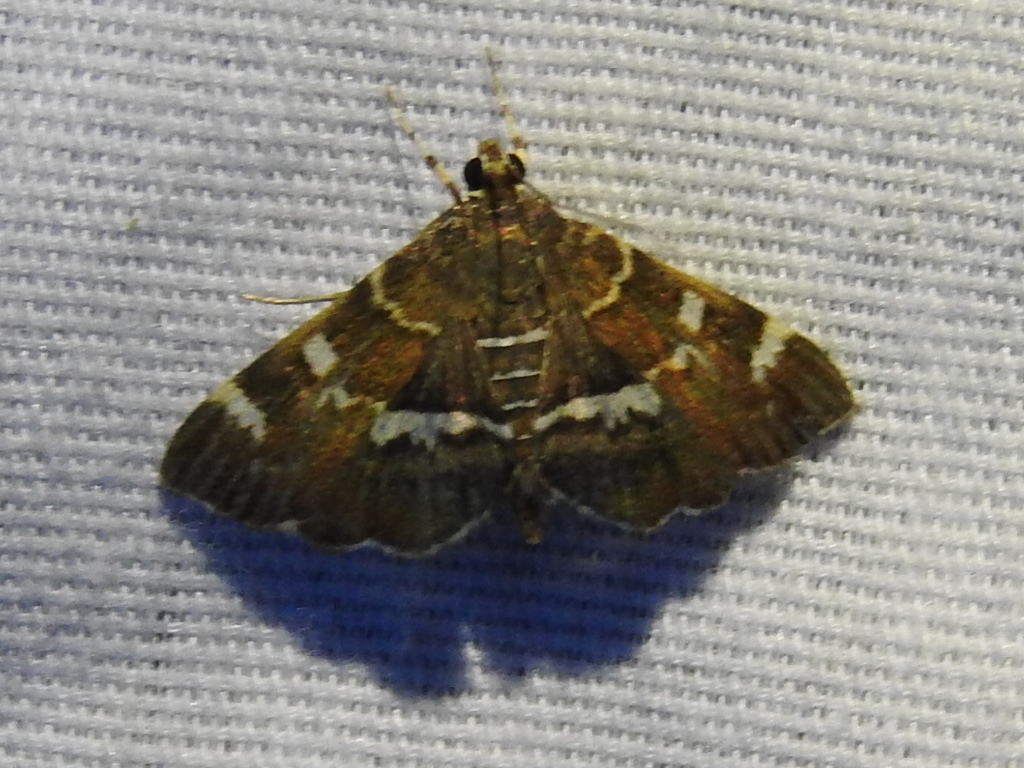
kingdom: Animalia
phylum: Arthropoda
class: Insecta
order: Lepidoptera
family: Crambidae
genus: Hymenia
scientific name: Hymenia perspectalis
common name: Spotted beet webworm
